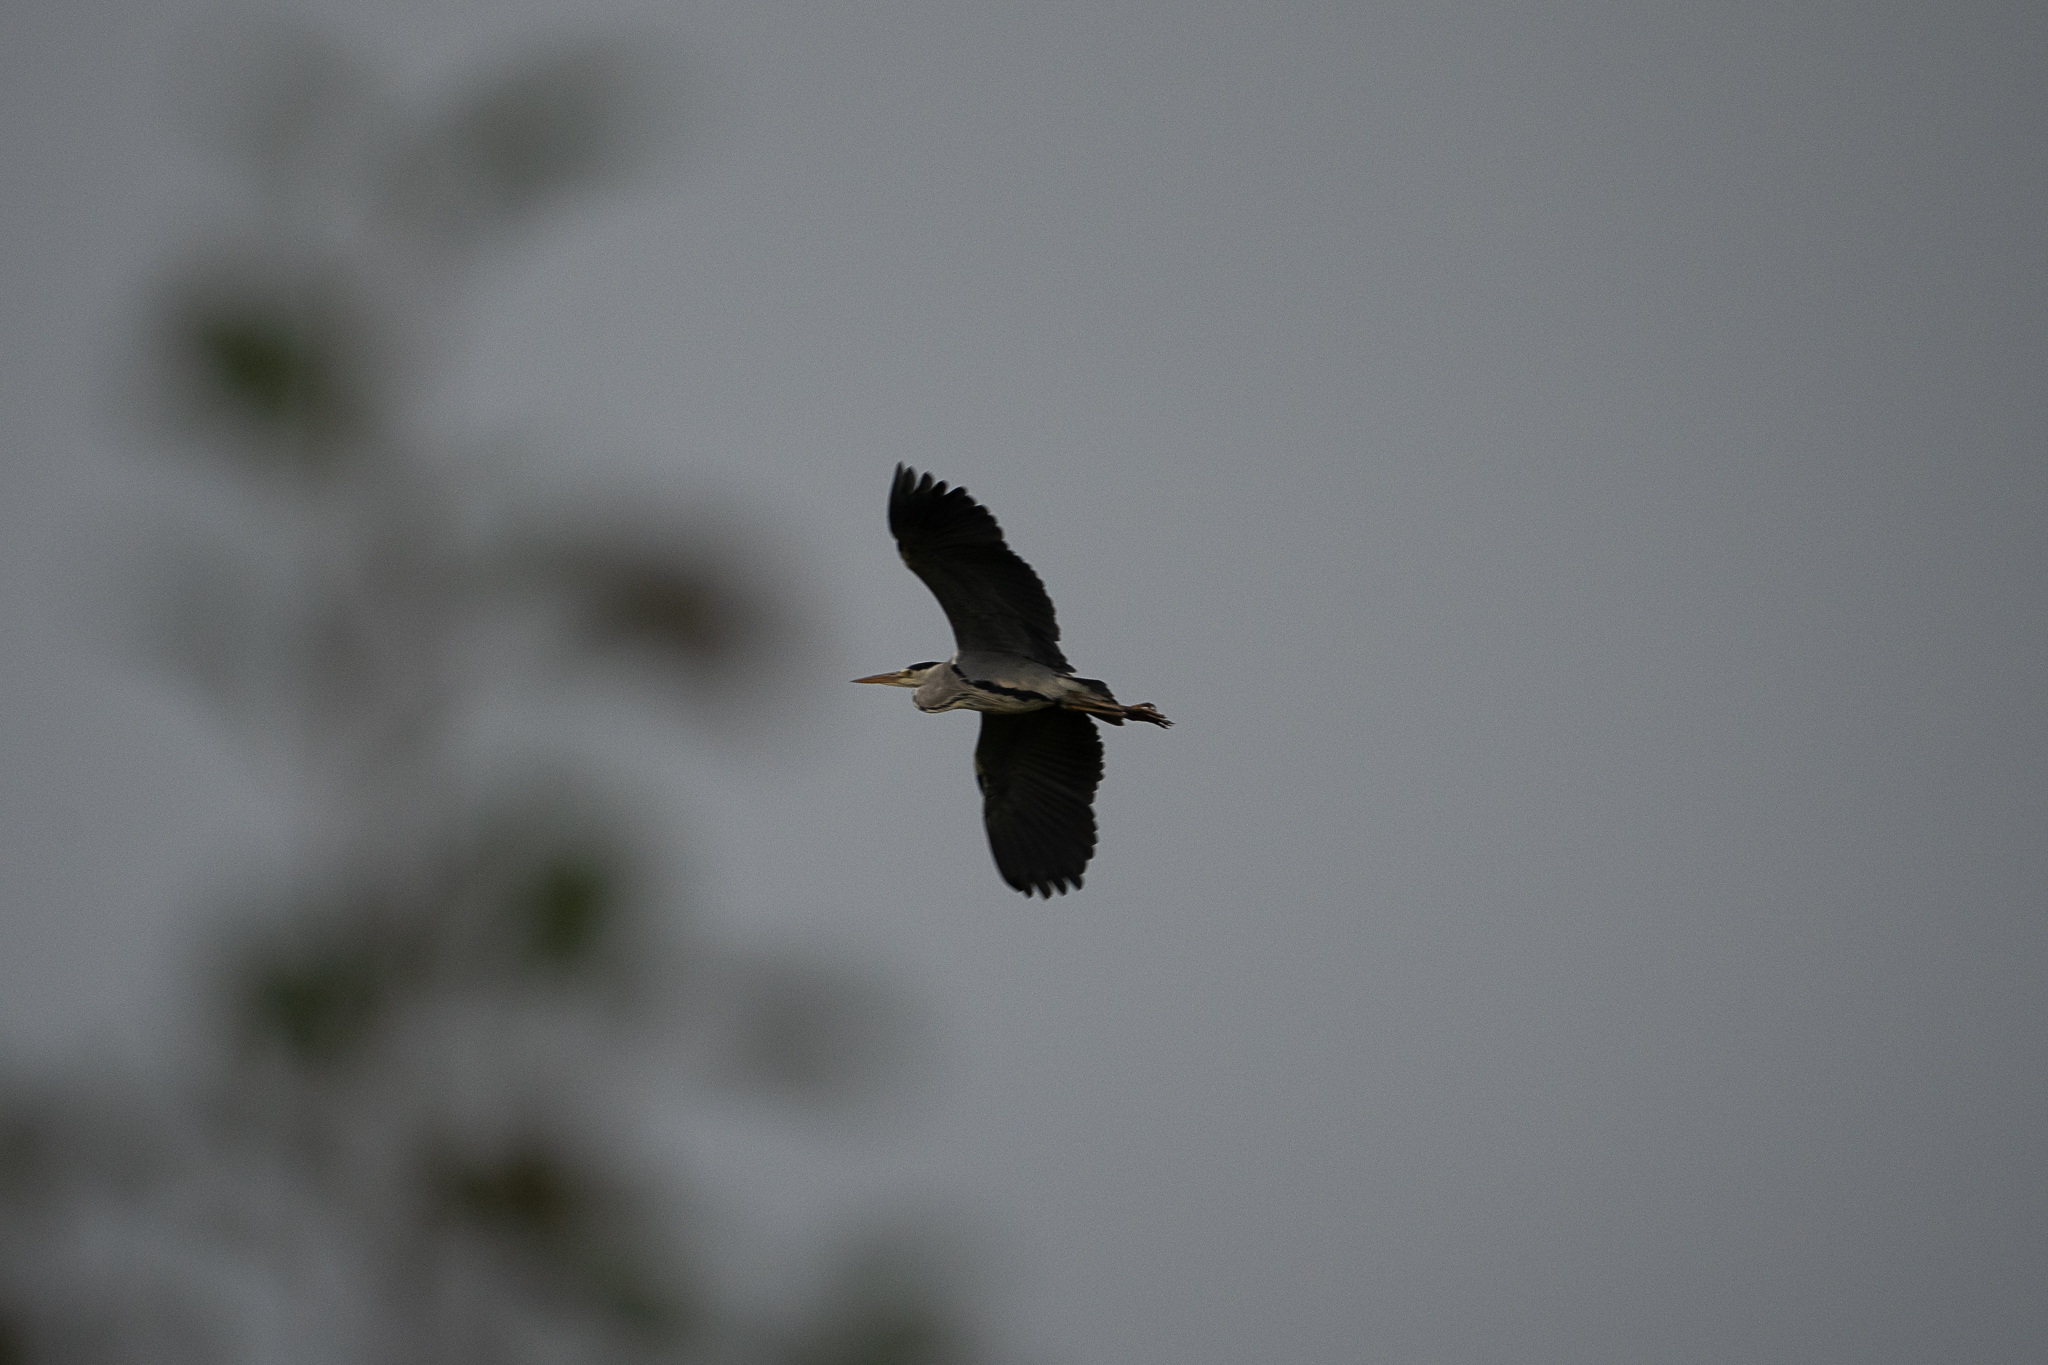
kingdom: Animalia
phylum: Chordata
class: Aves
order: Pelecaniformes
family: Ardeidae
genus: Ardea
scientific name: Ardea cinerea
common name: Grey heron
